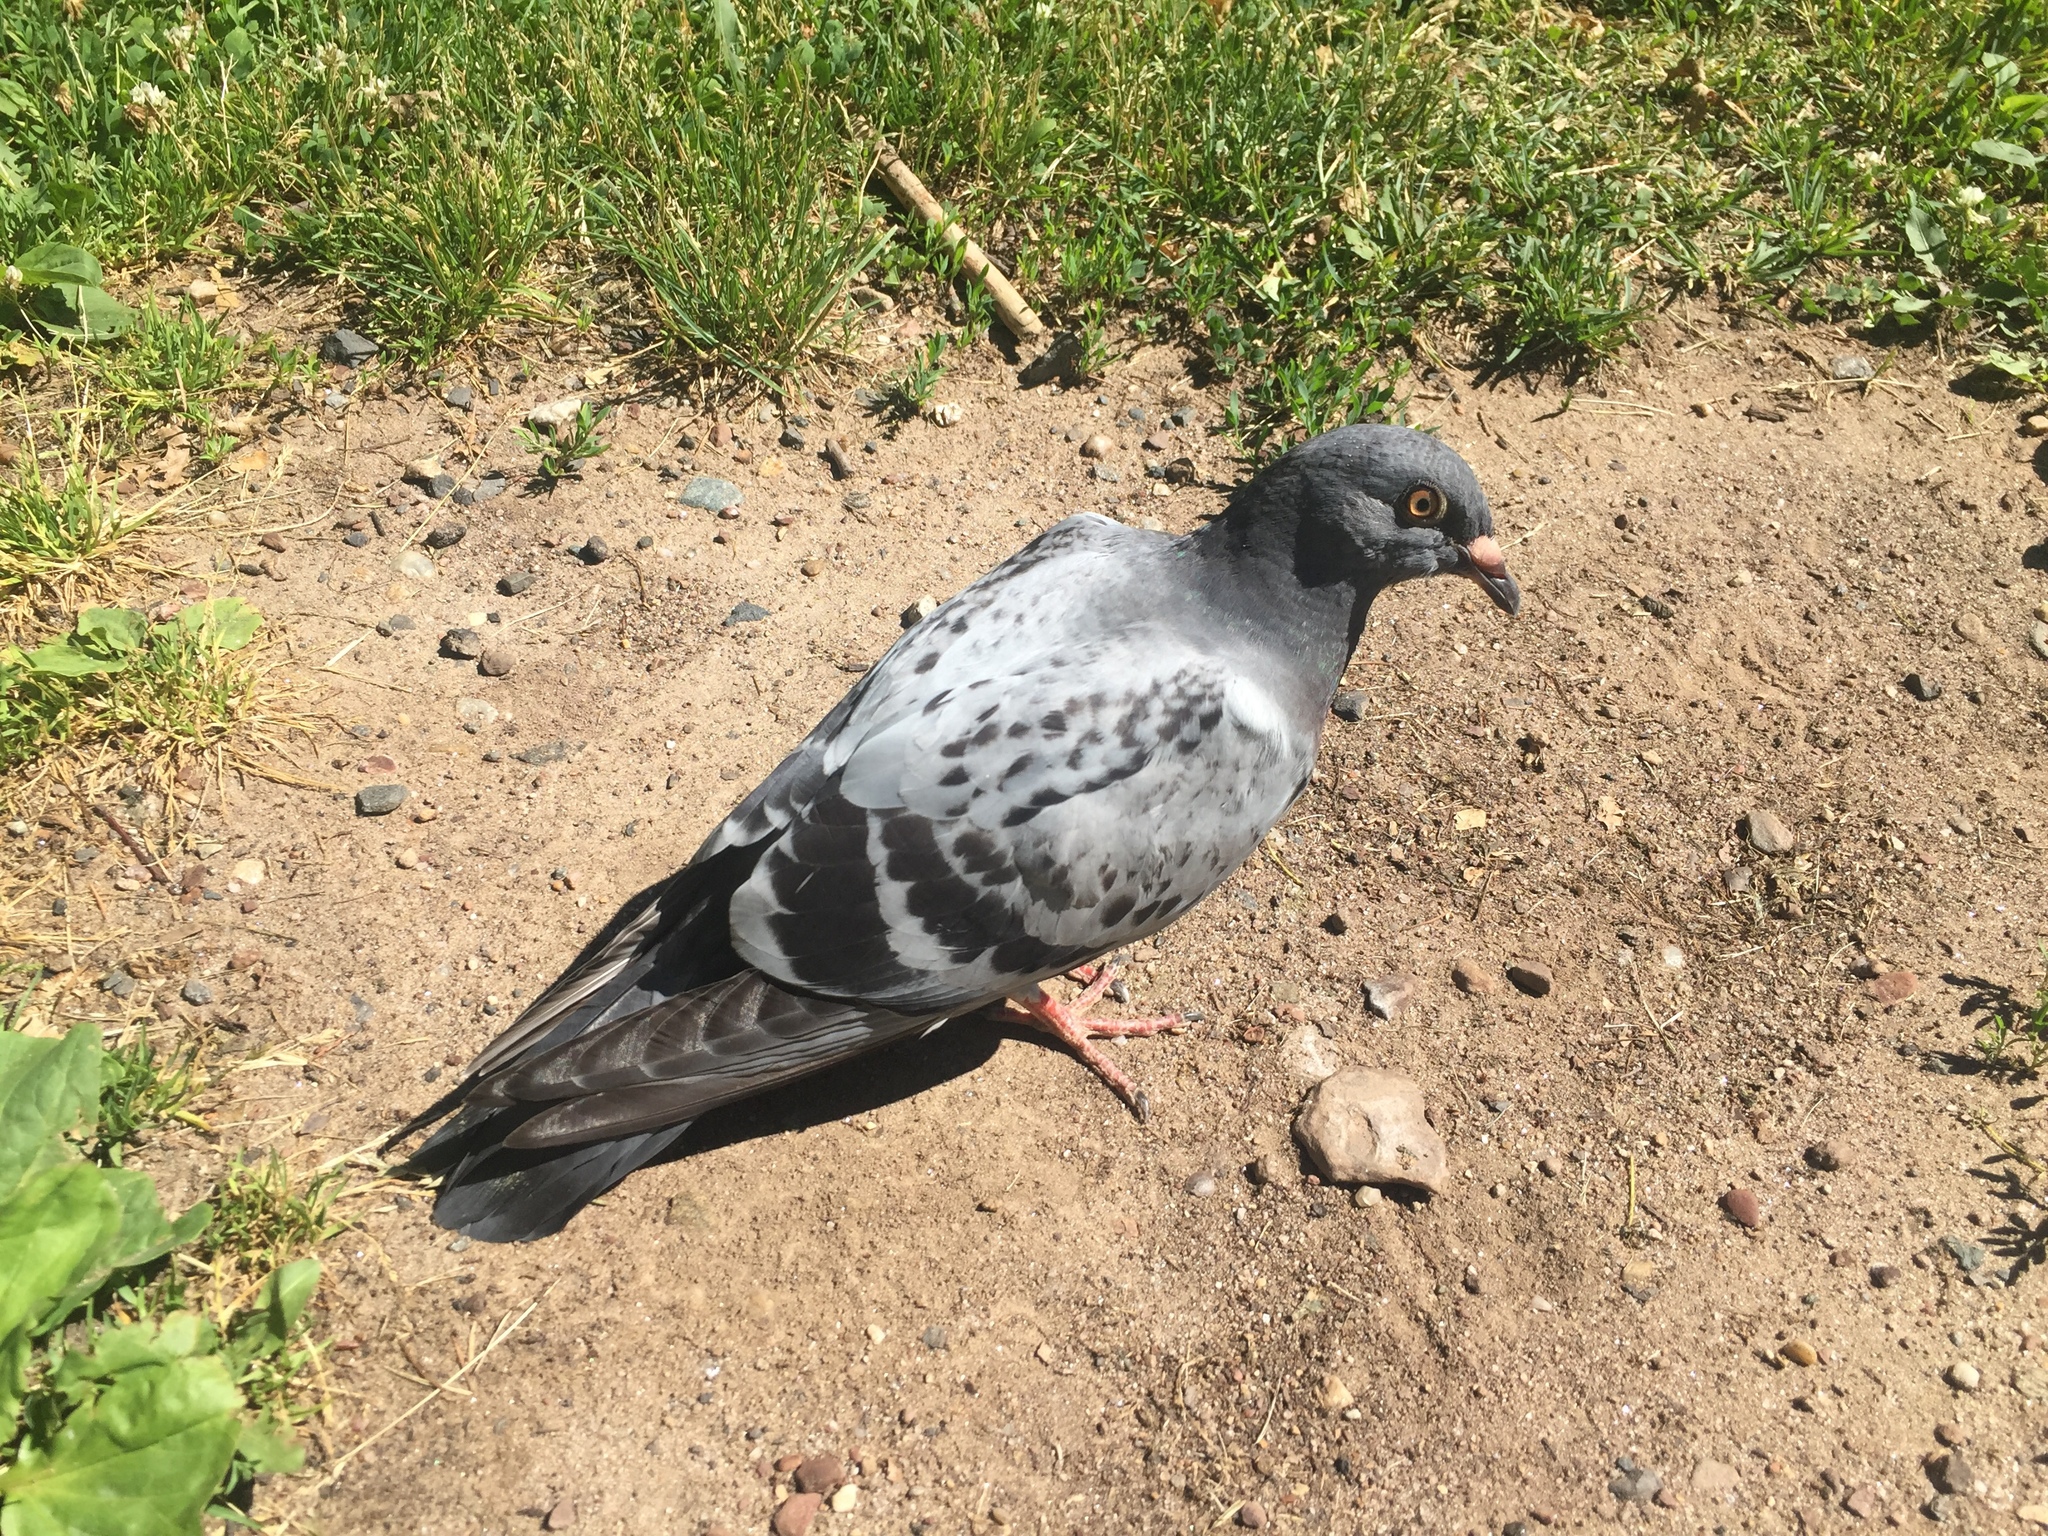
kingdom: Animalia
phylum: Chordata
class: Aves
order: Columbiformes
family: Columbidae
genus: Columba
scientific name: Columba livia
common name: Rock pigeon
